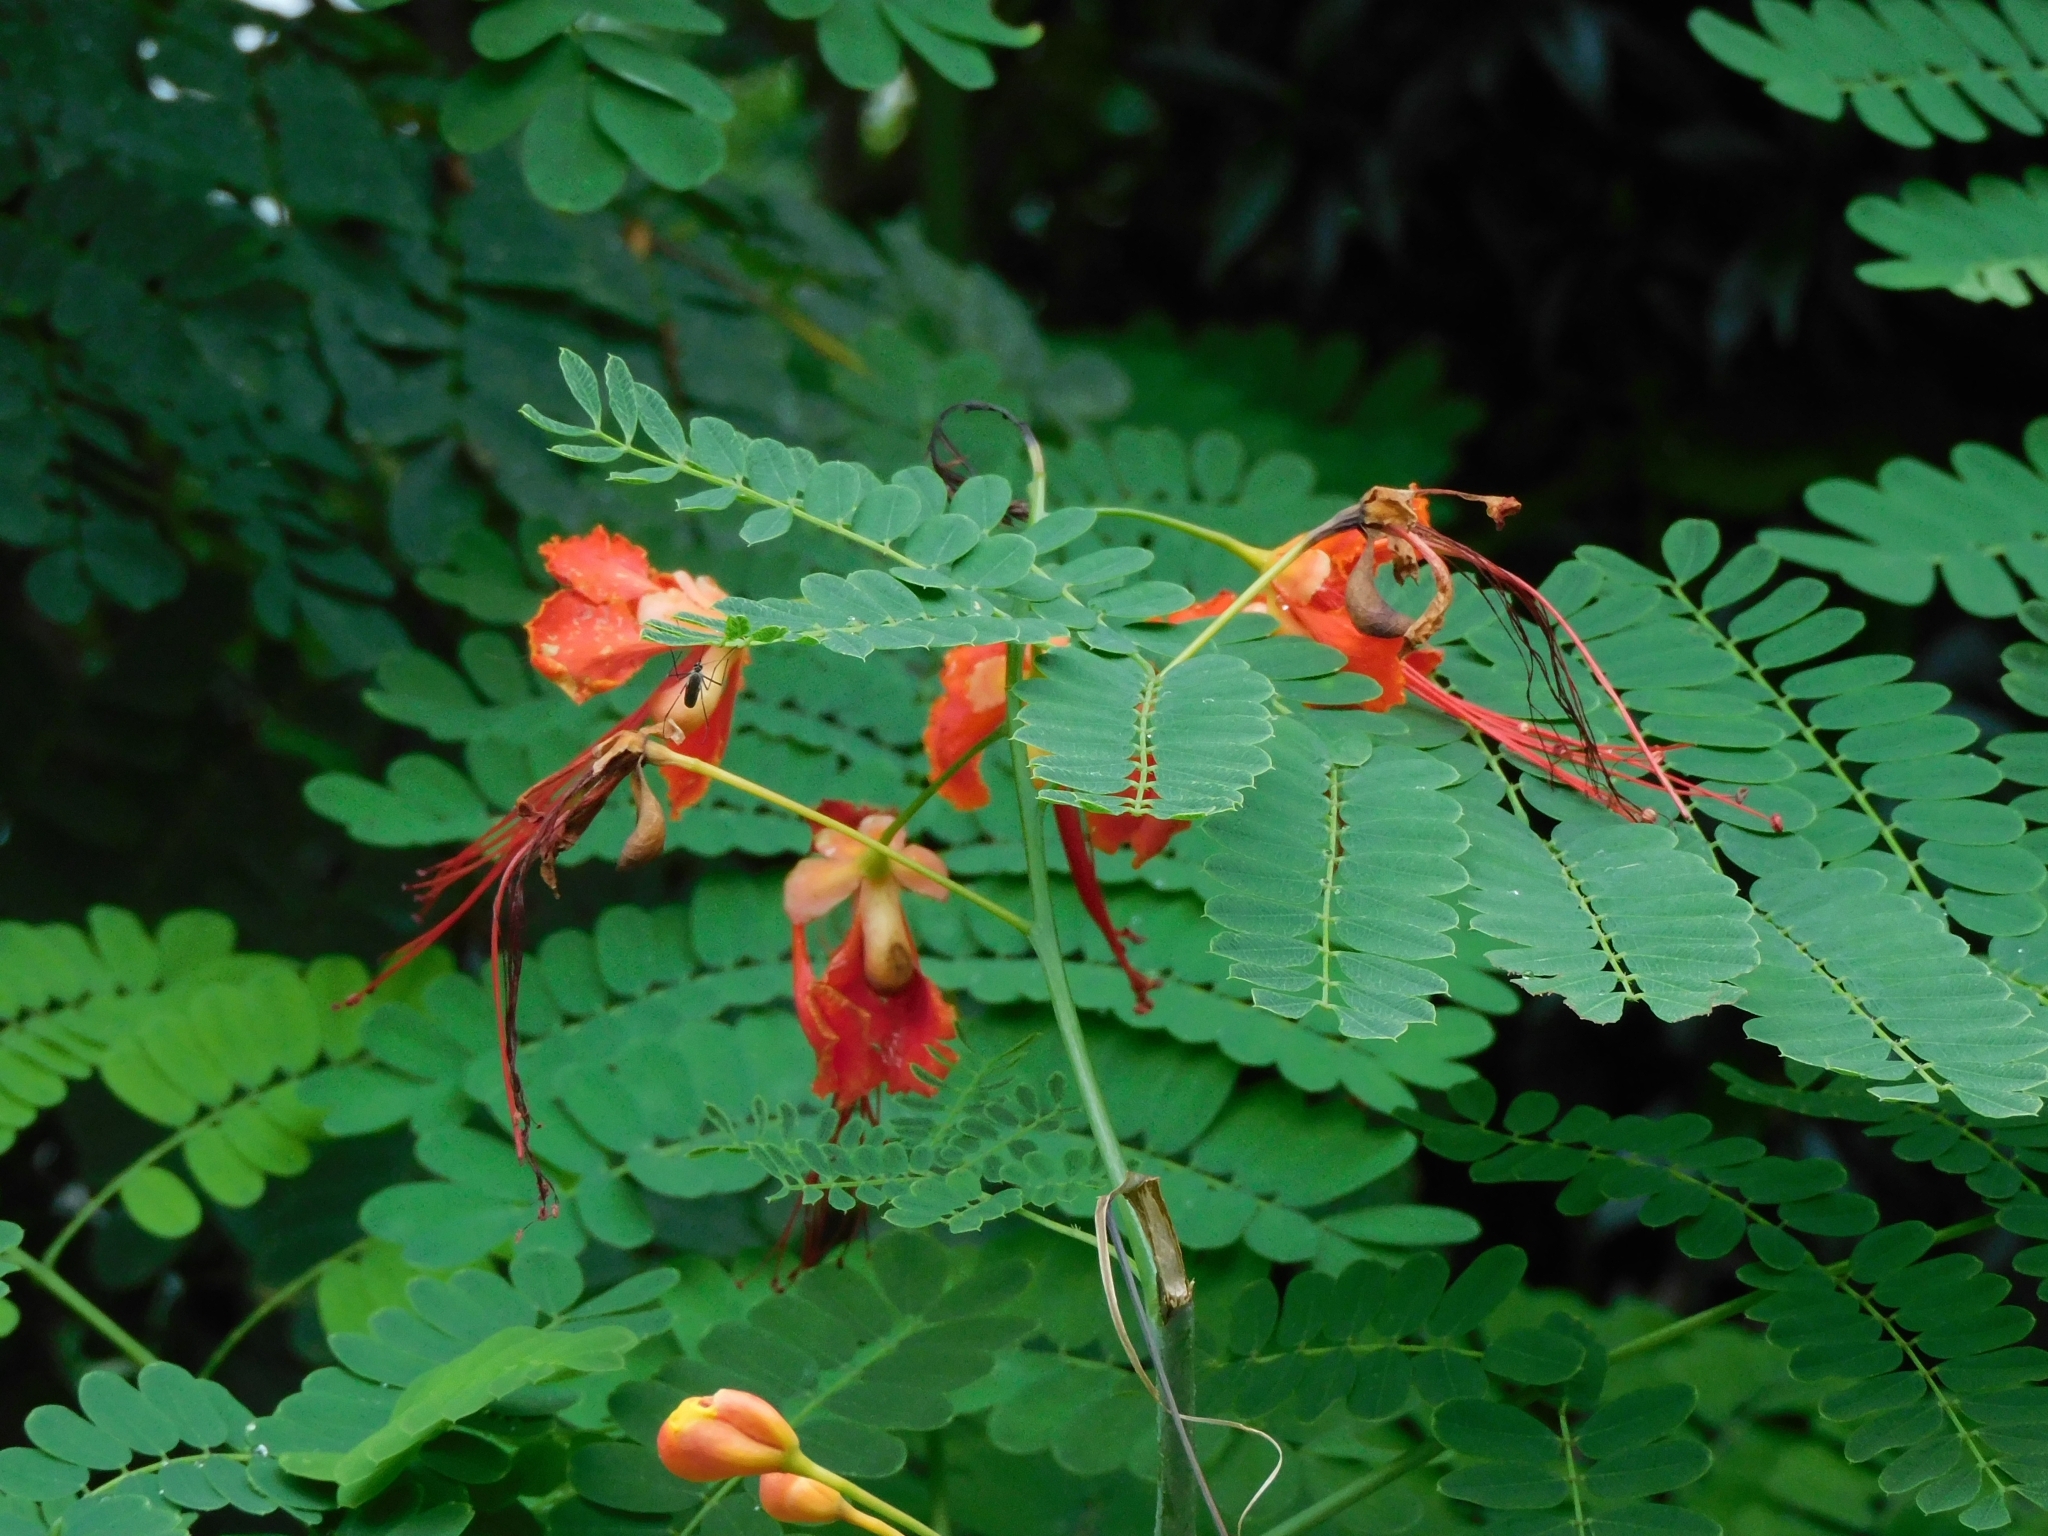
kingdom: Plantae
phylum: Tracheophyta
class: Magnoliopsida
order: Fabales
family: Fabaceae
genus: Caesalpinia
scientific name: Caesalpinia pulcherrima
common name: Pride-of-barbados
